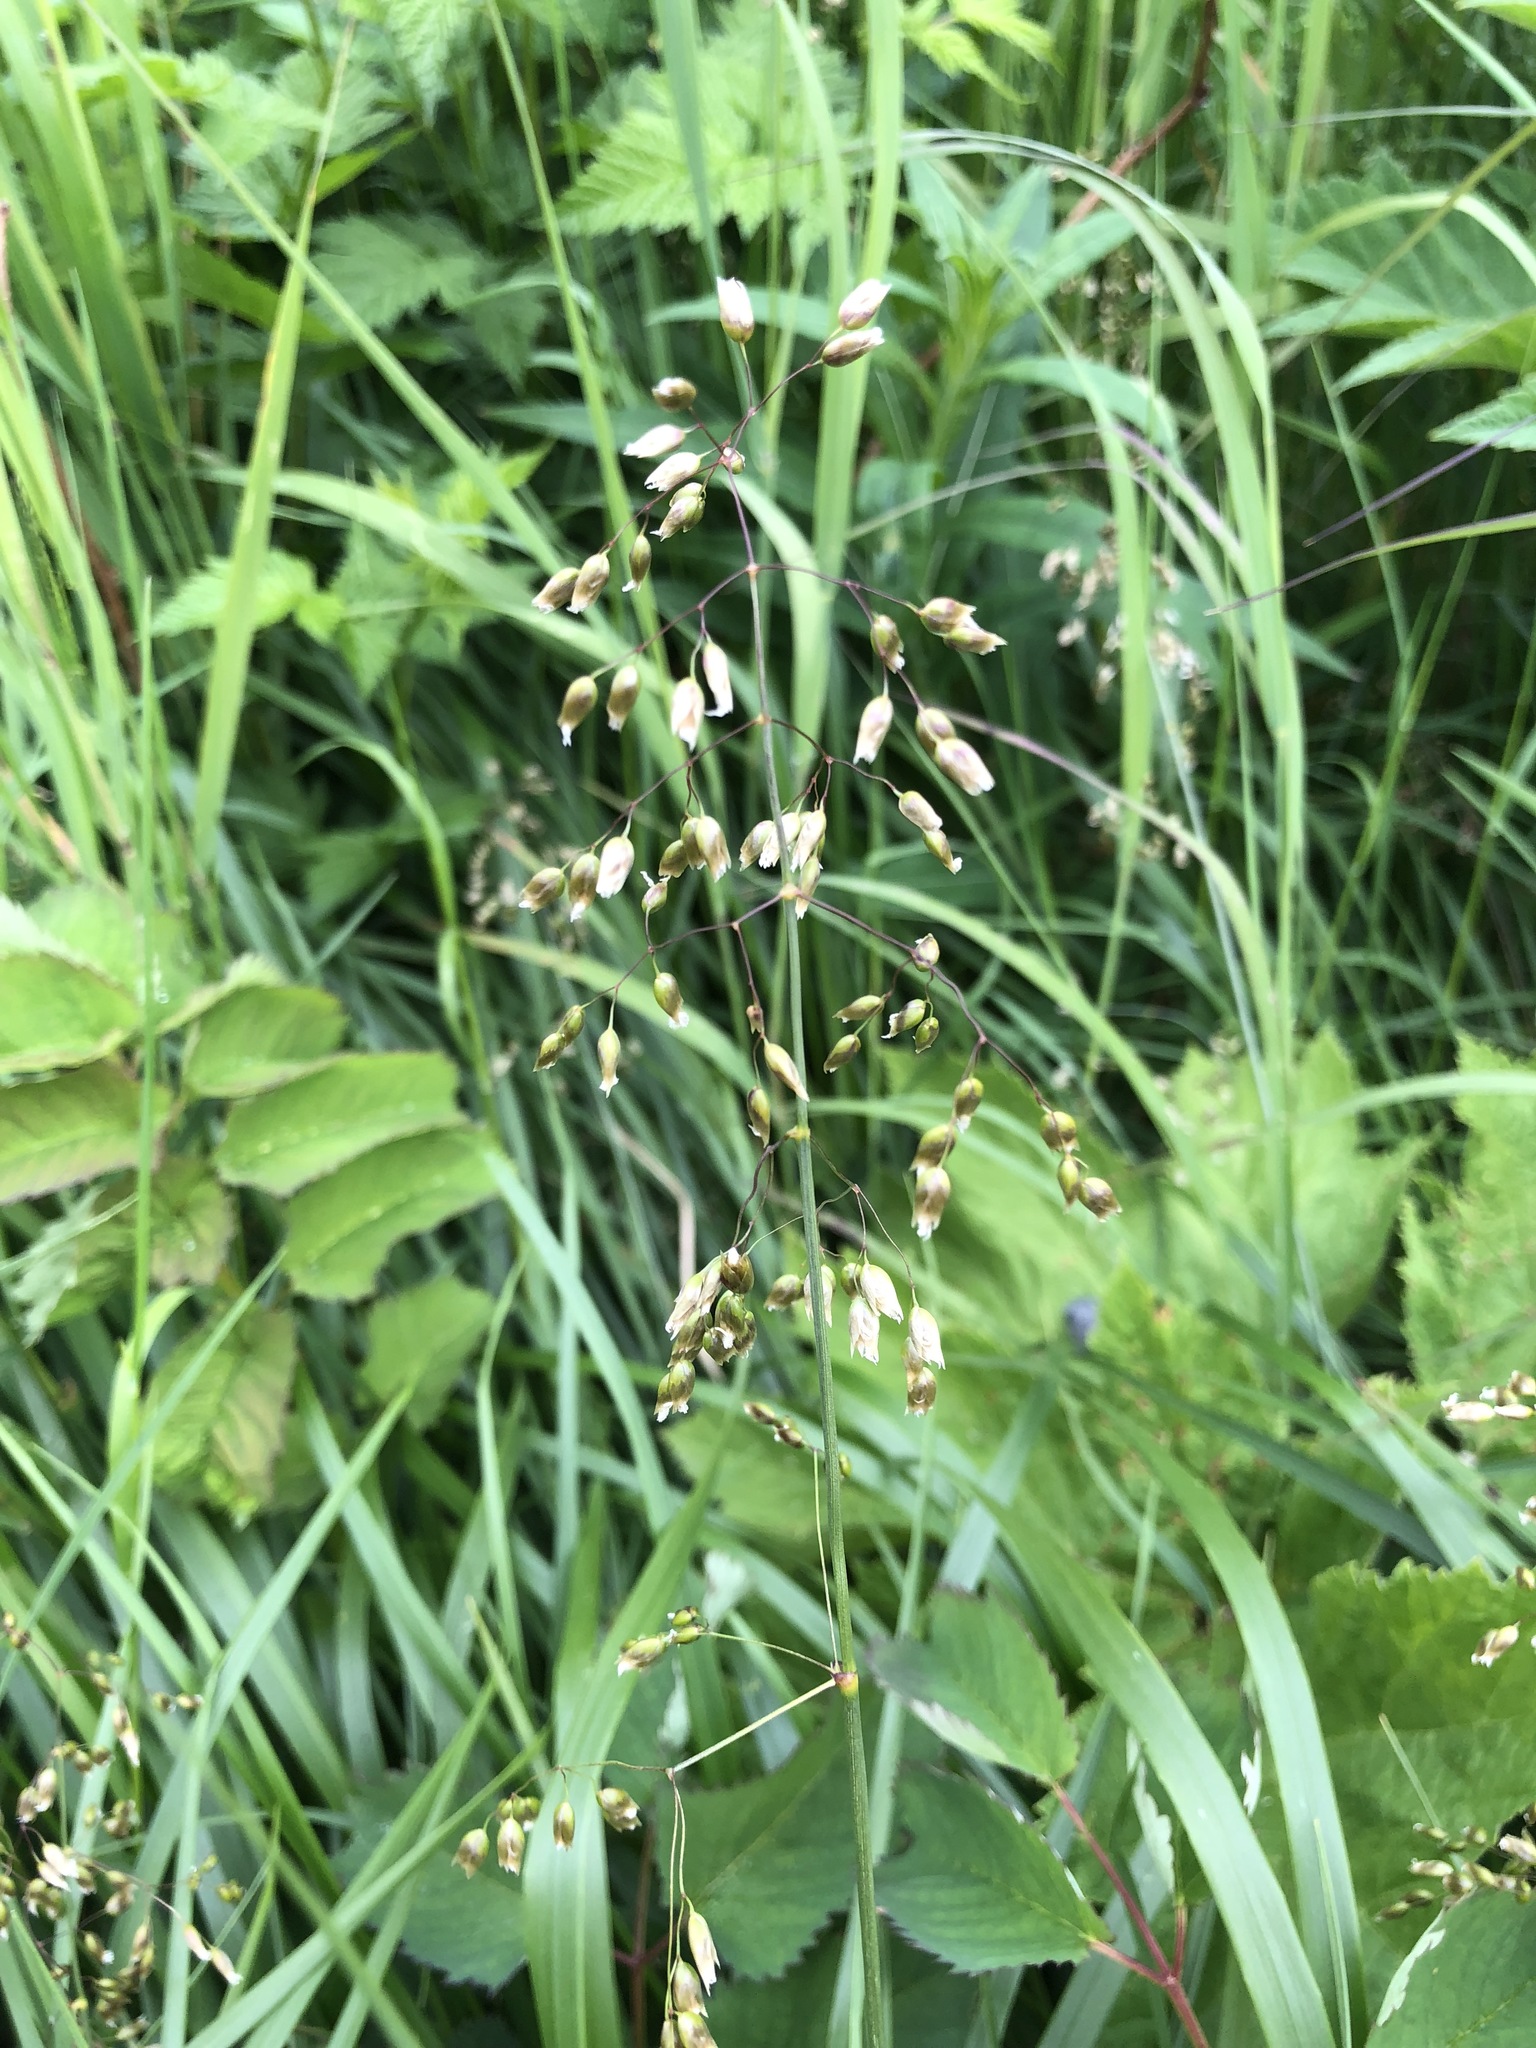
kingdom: Plantae
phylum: Tracheophyta
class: Liliopsida
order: Poales
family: Poaceae
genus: Anthoxanthum
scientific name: Anthoxanthum nitens
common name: Holy grass
